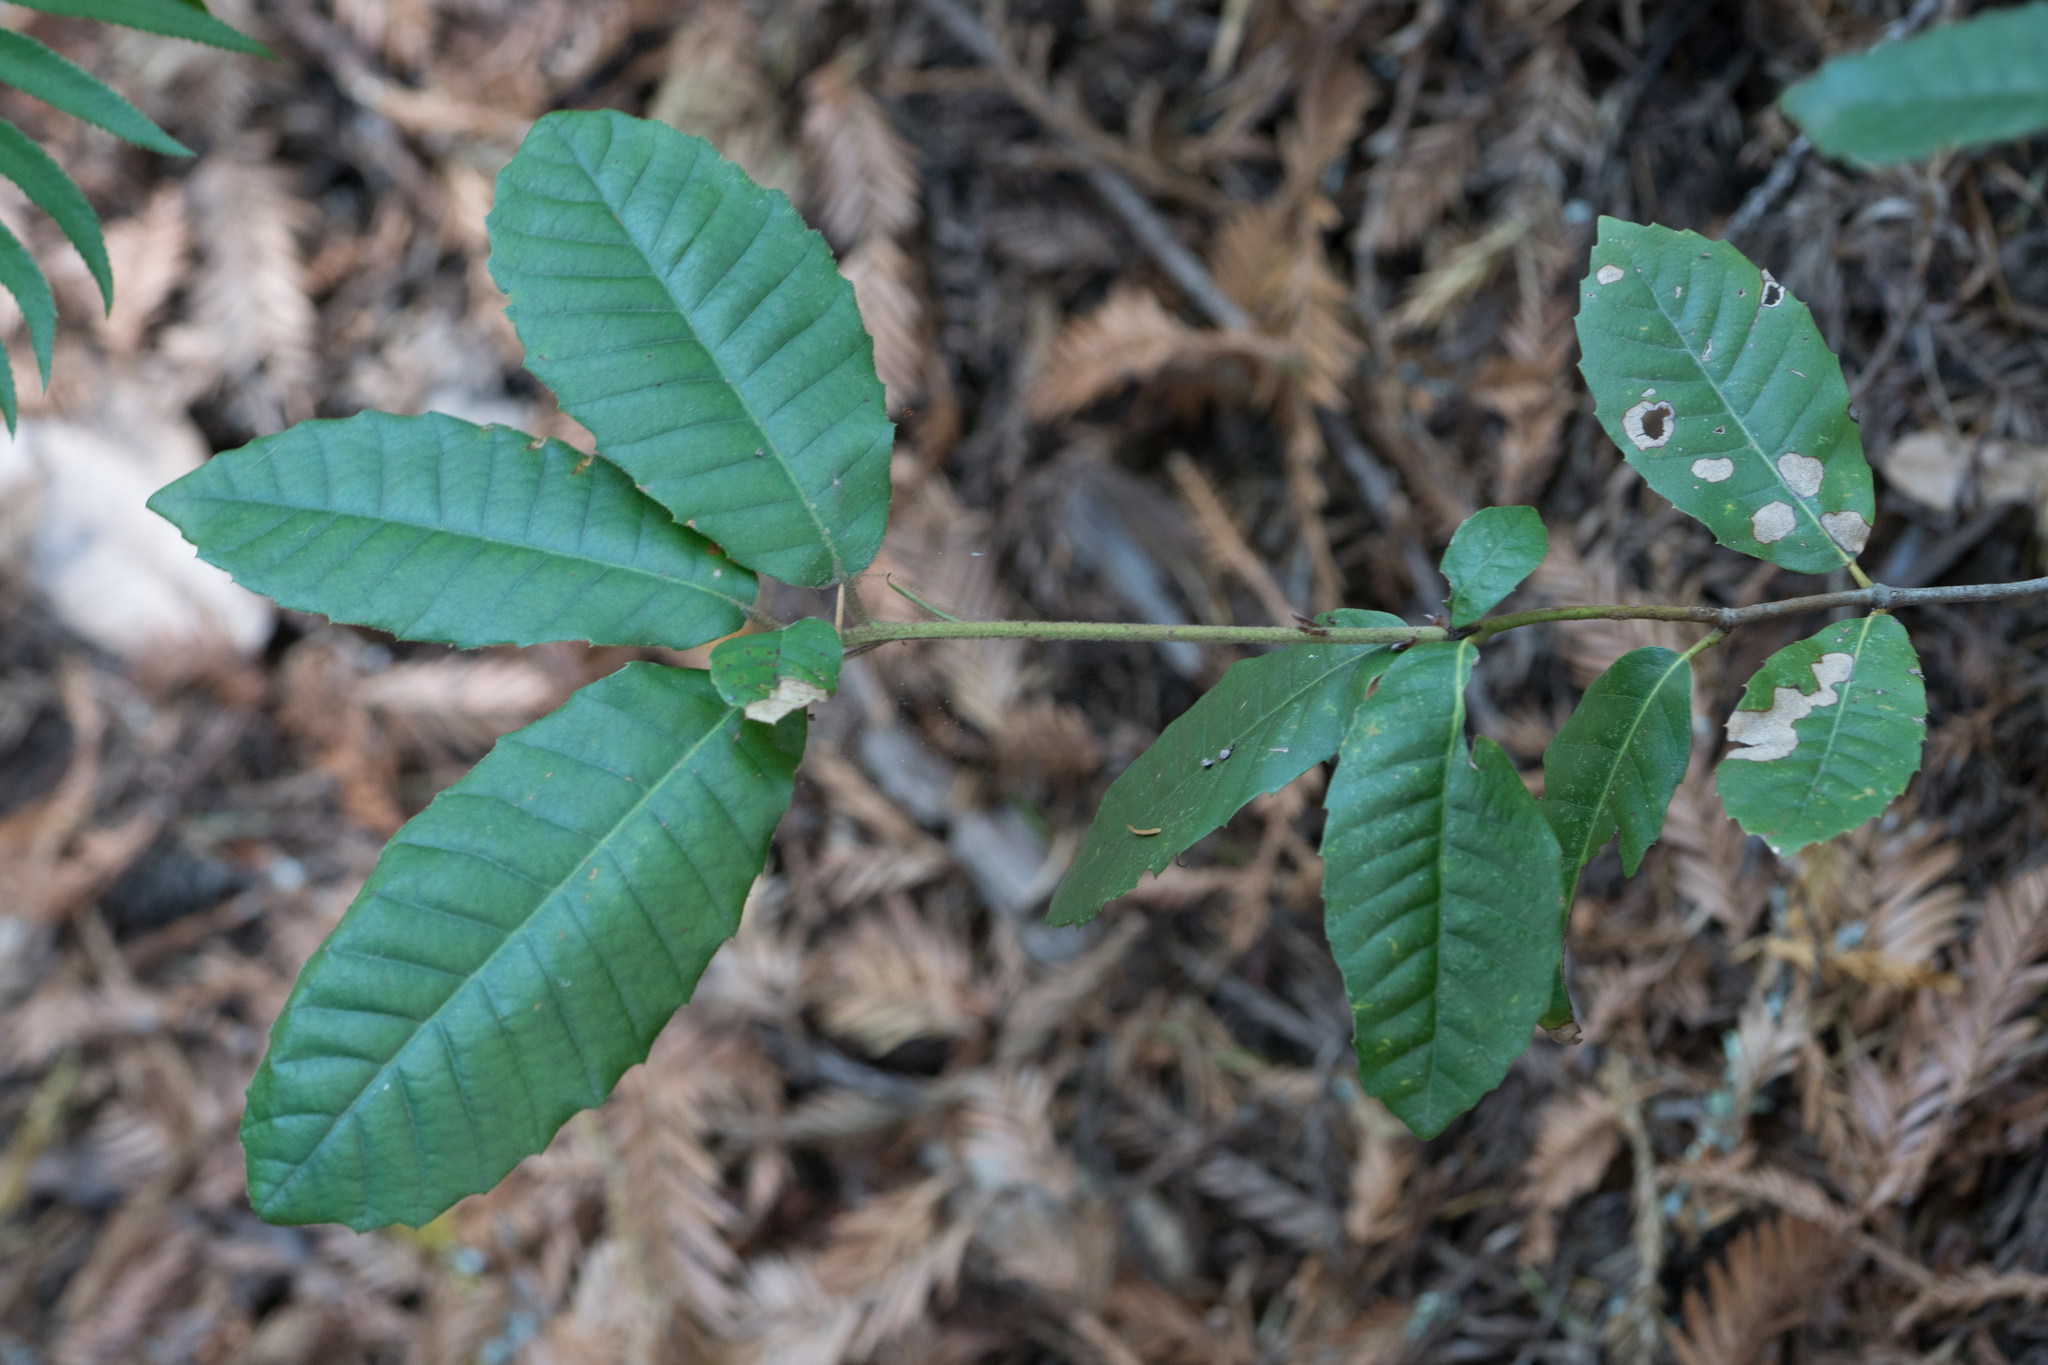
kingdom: Plantae
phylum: Tracheophyta
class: Magnoliopsida
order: Fagales
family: Fagaceae
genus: Notholithocarpus
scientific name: Notholithocarpus densiflorus
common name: Tan bark oak
